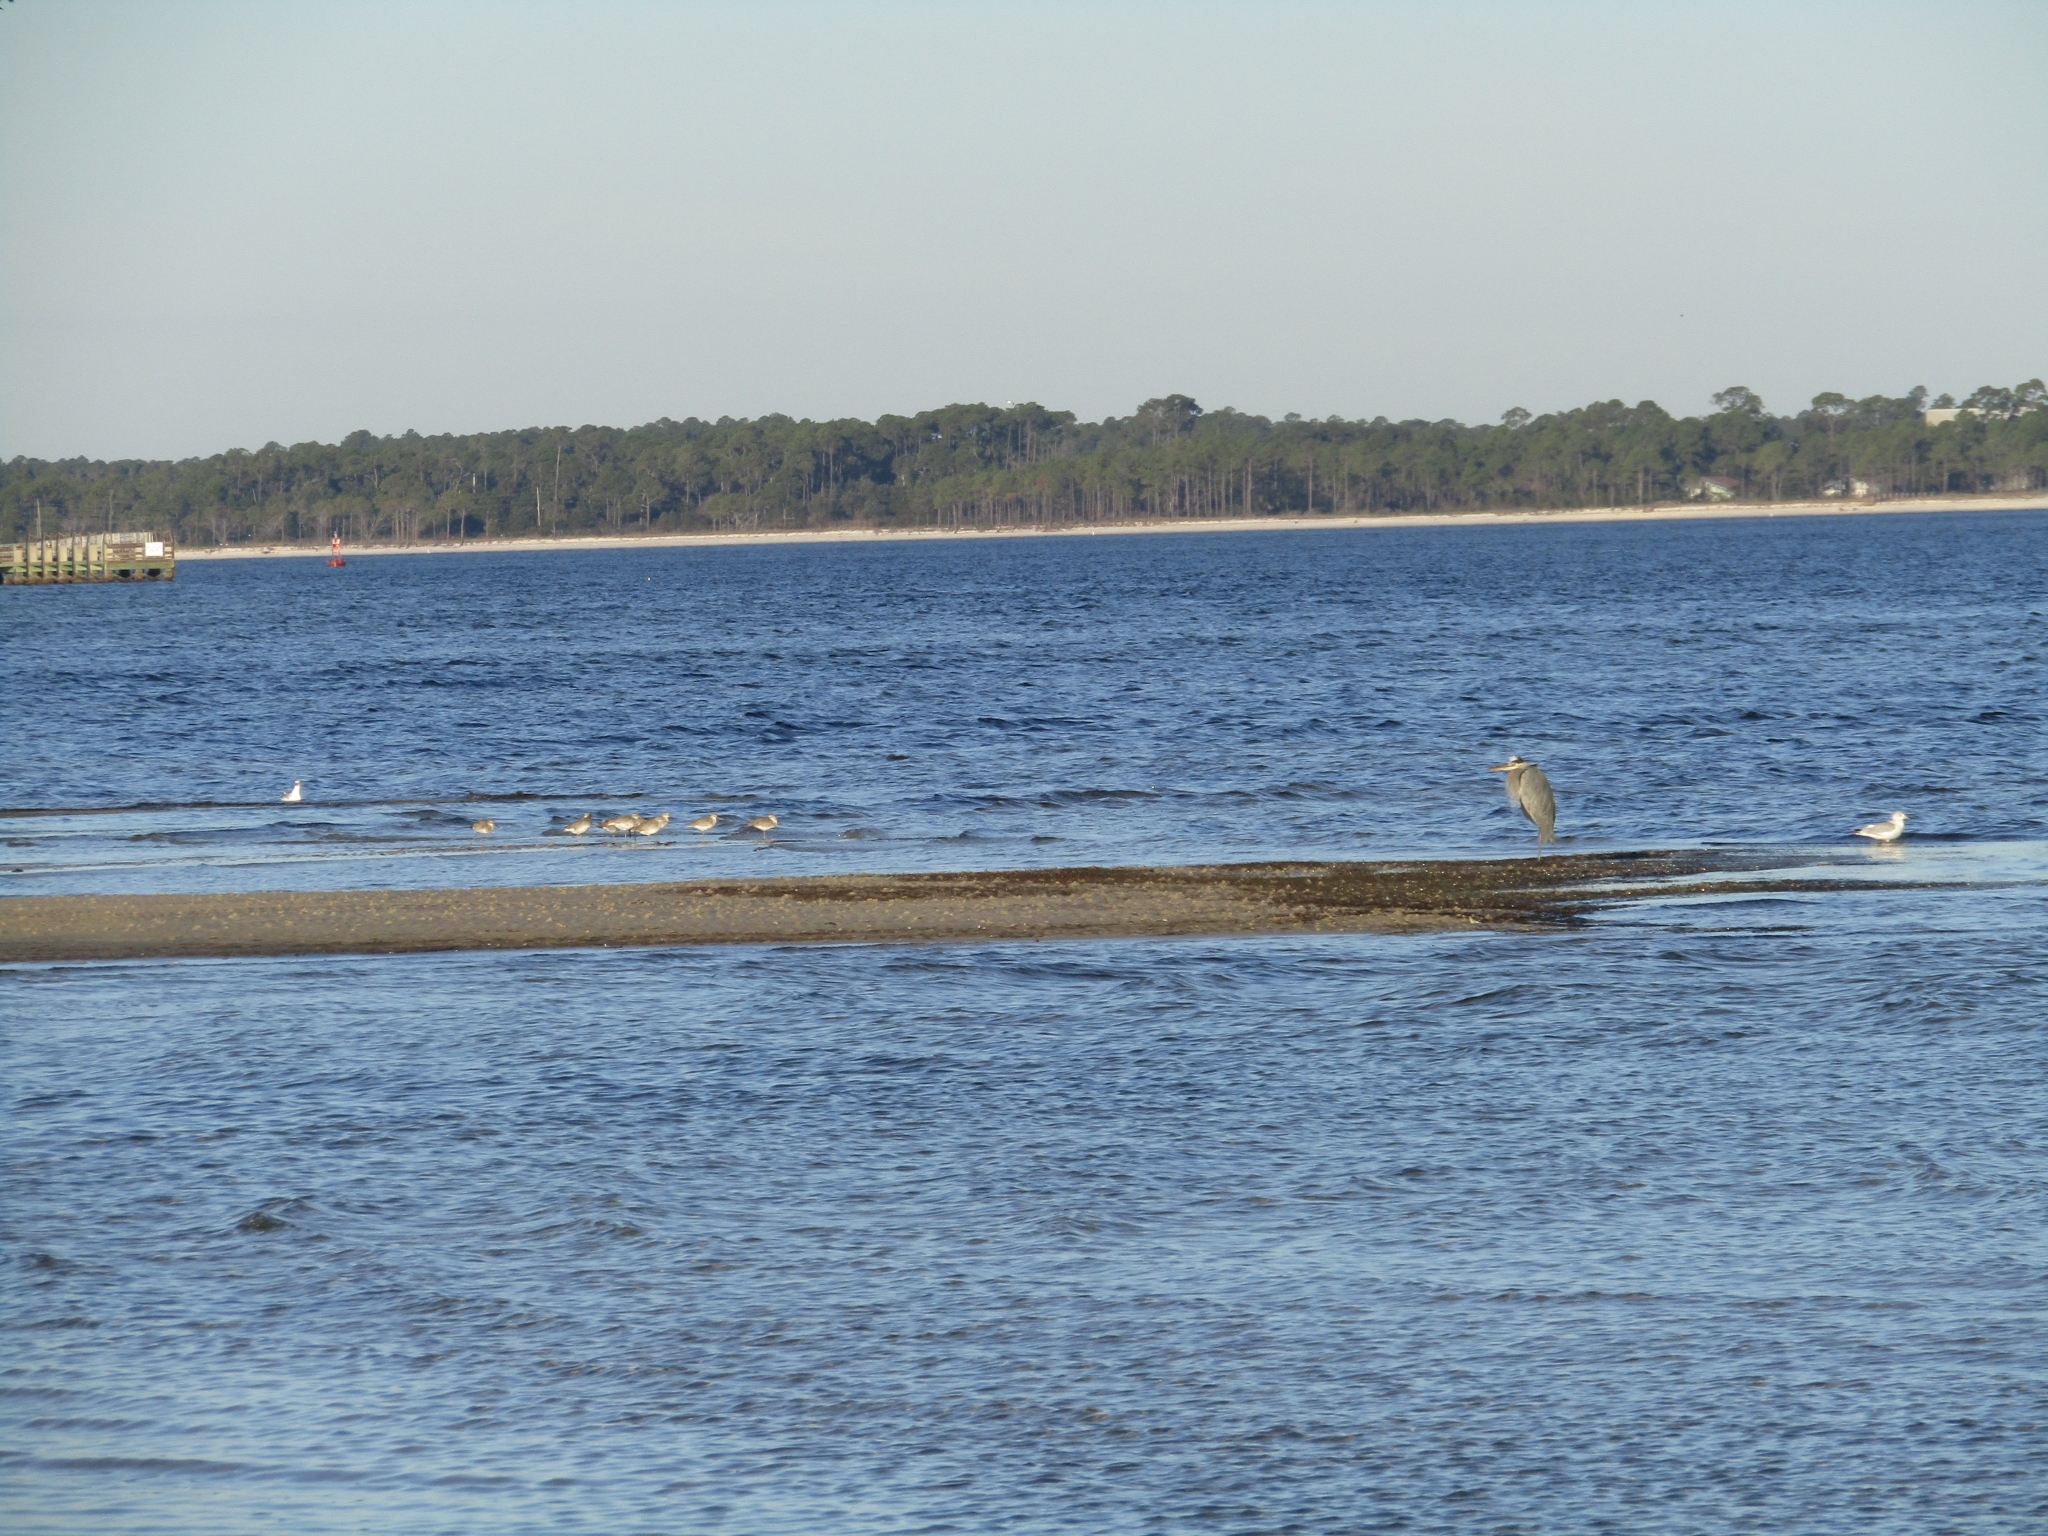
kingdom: Animalia
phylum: Chordata
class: Aves
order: Charadriiformes
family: Scolopacidae
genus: Tringa
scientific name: Tringa semipalmata
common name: Willet
